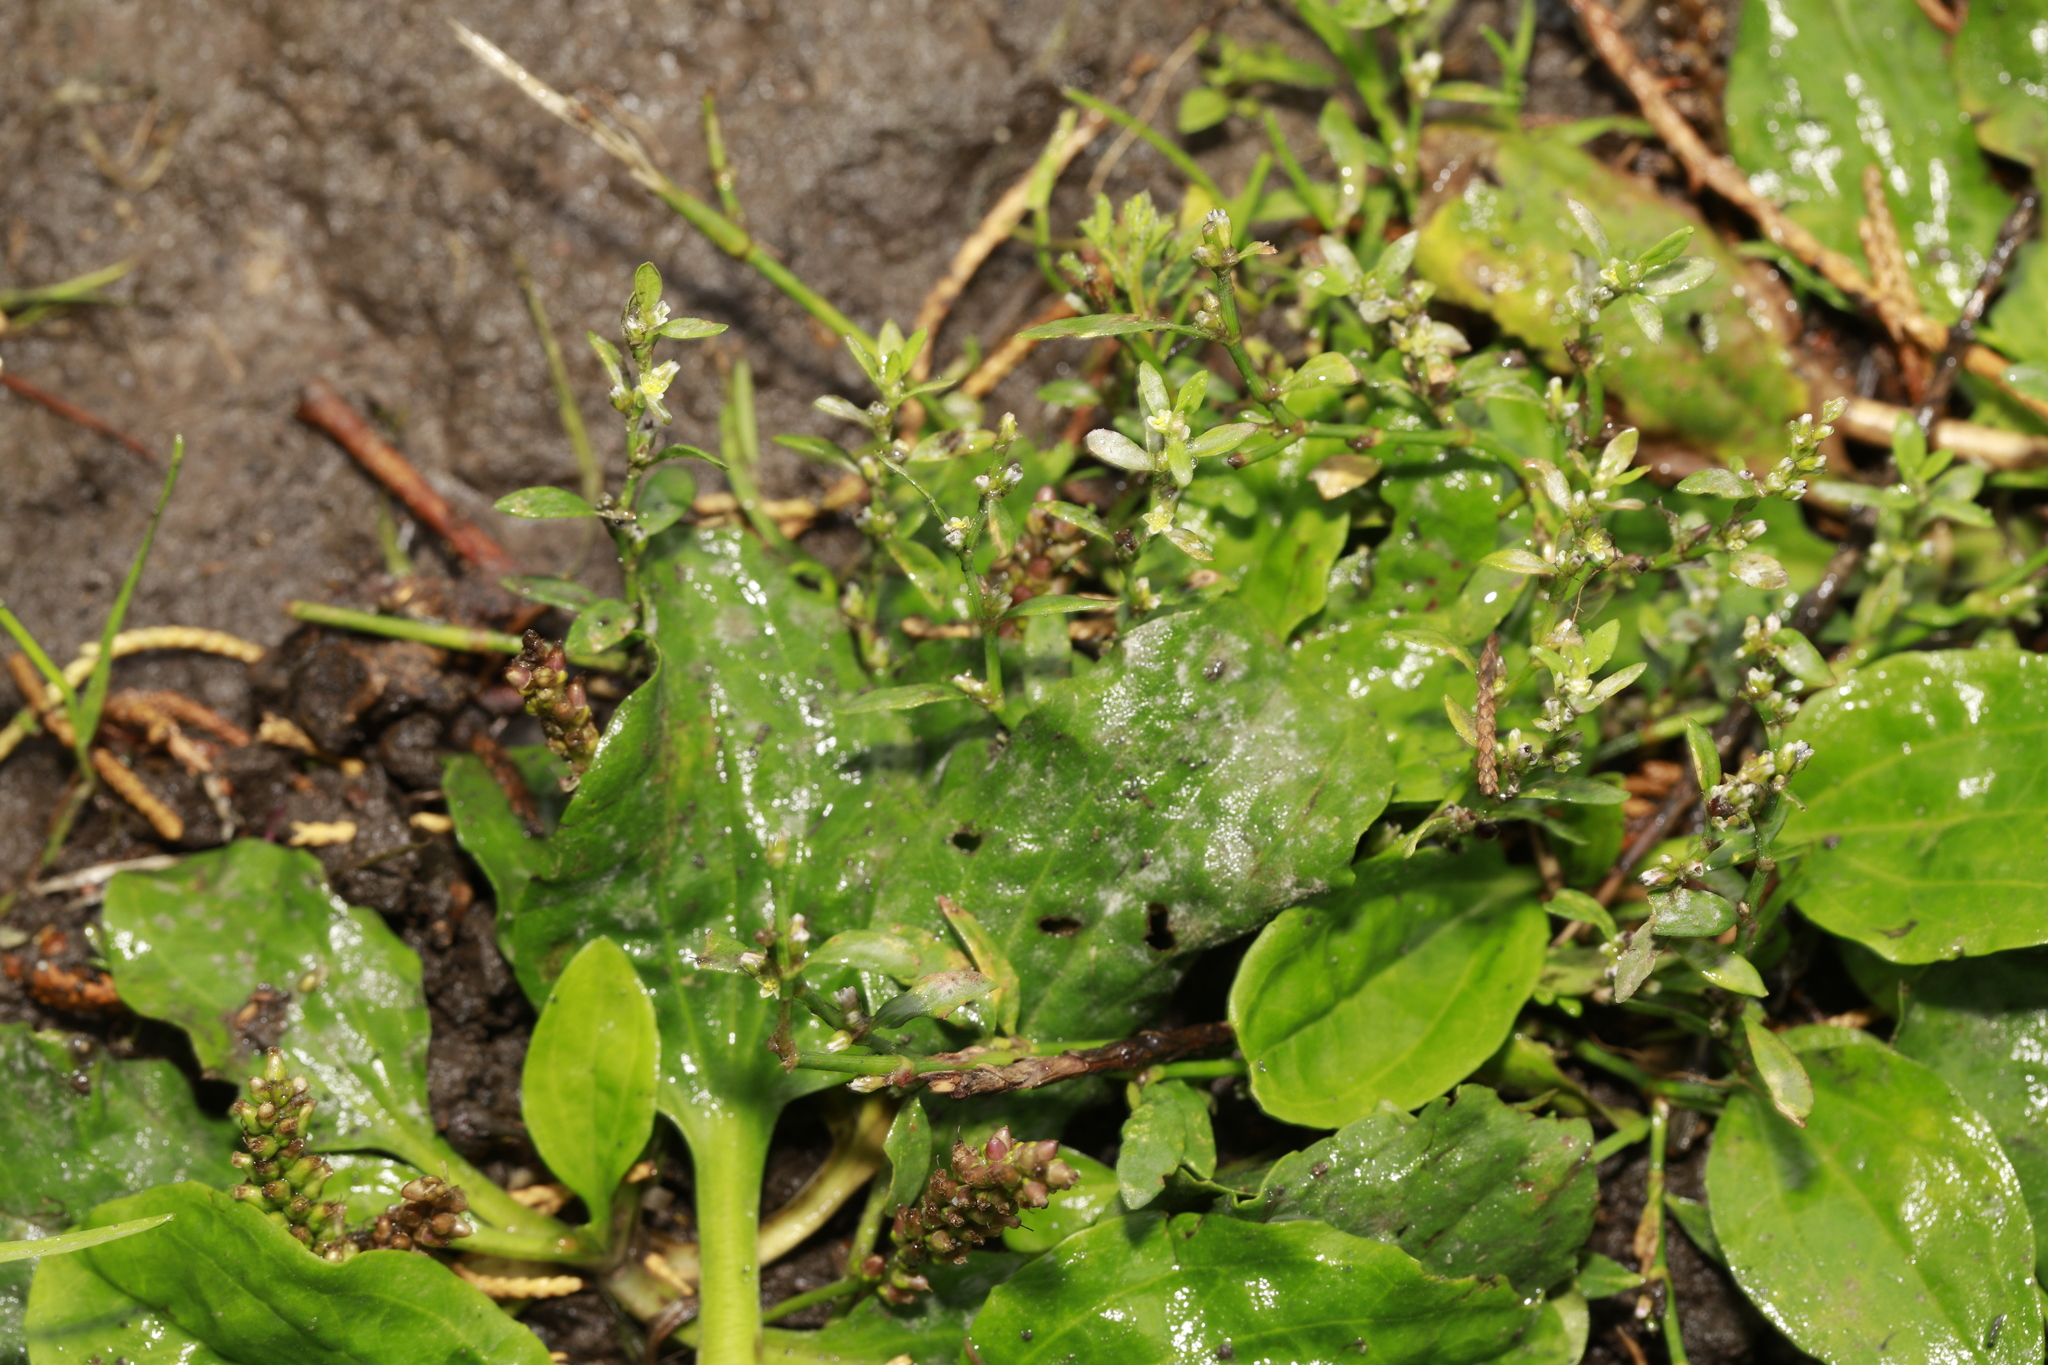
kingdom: Plantae
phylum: Tracheophyta
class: Magnoliopsida
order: Lamiales
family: Plantaginaceae
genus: Plantago
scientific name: Plantago major
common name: Common plantain
